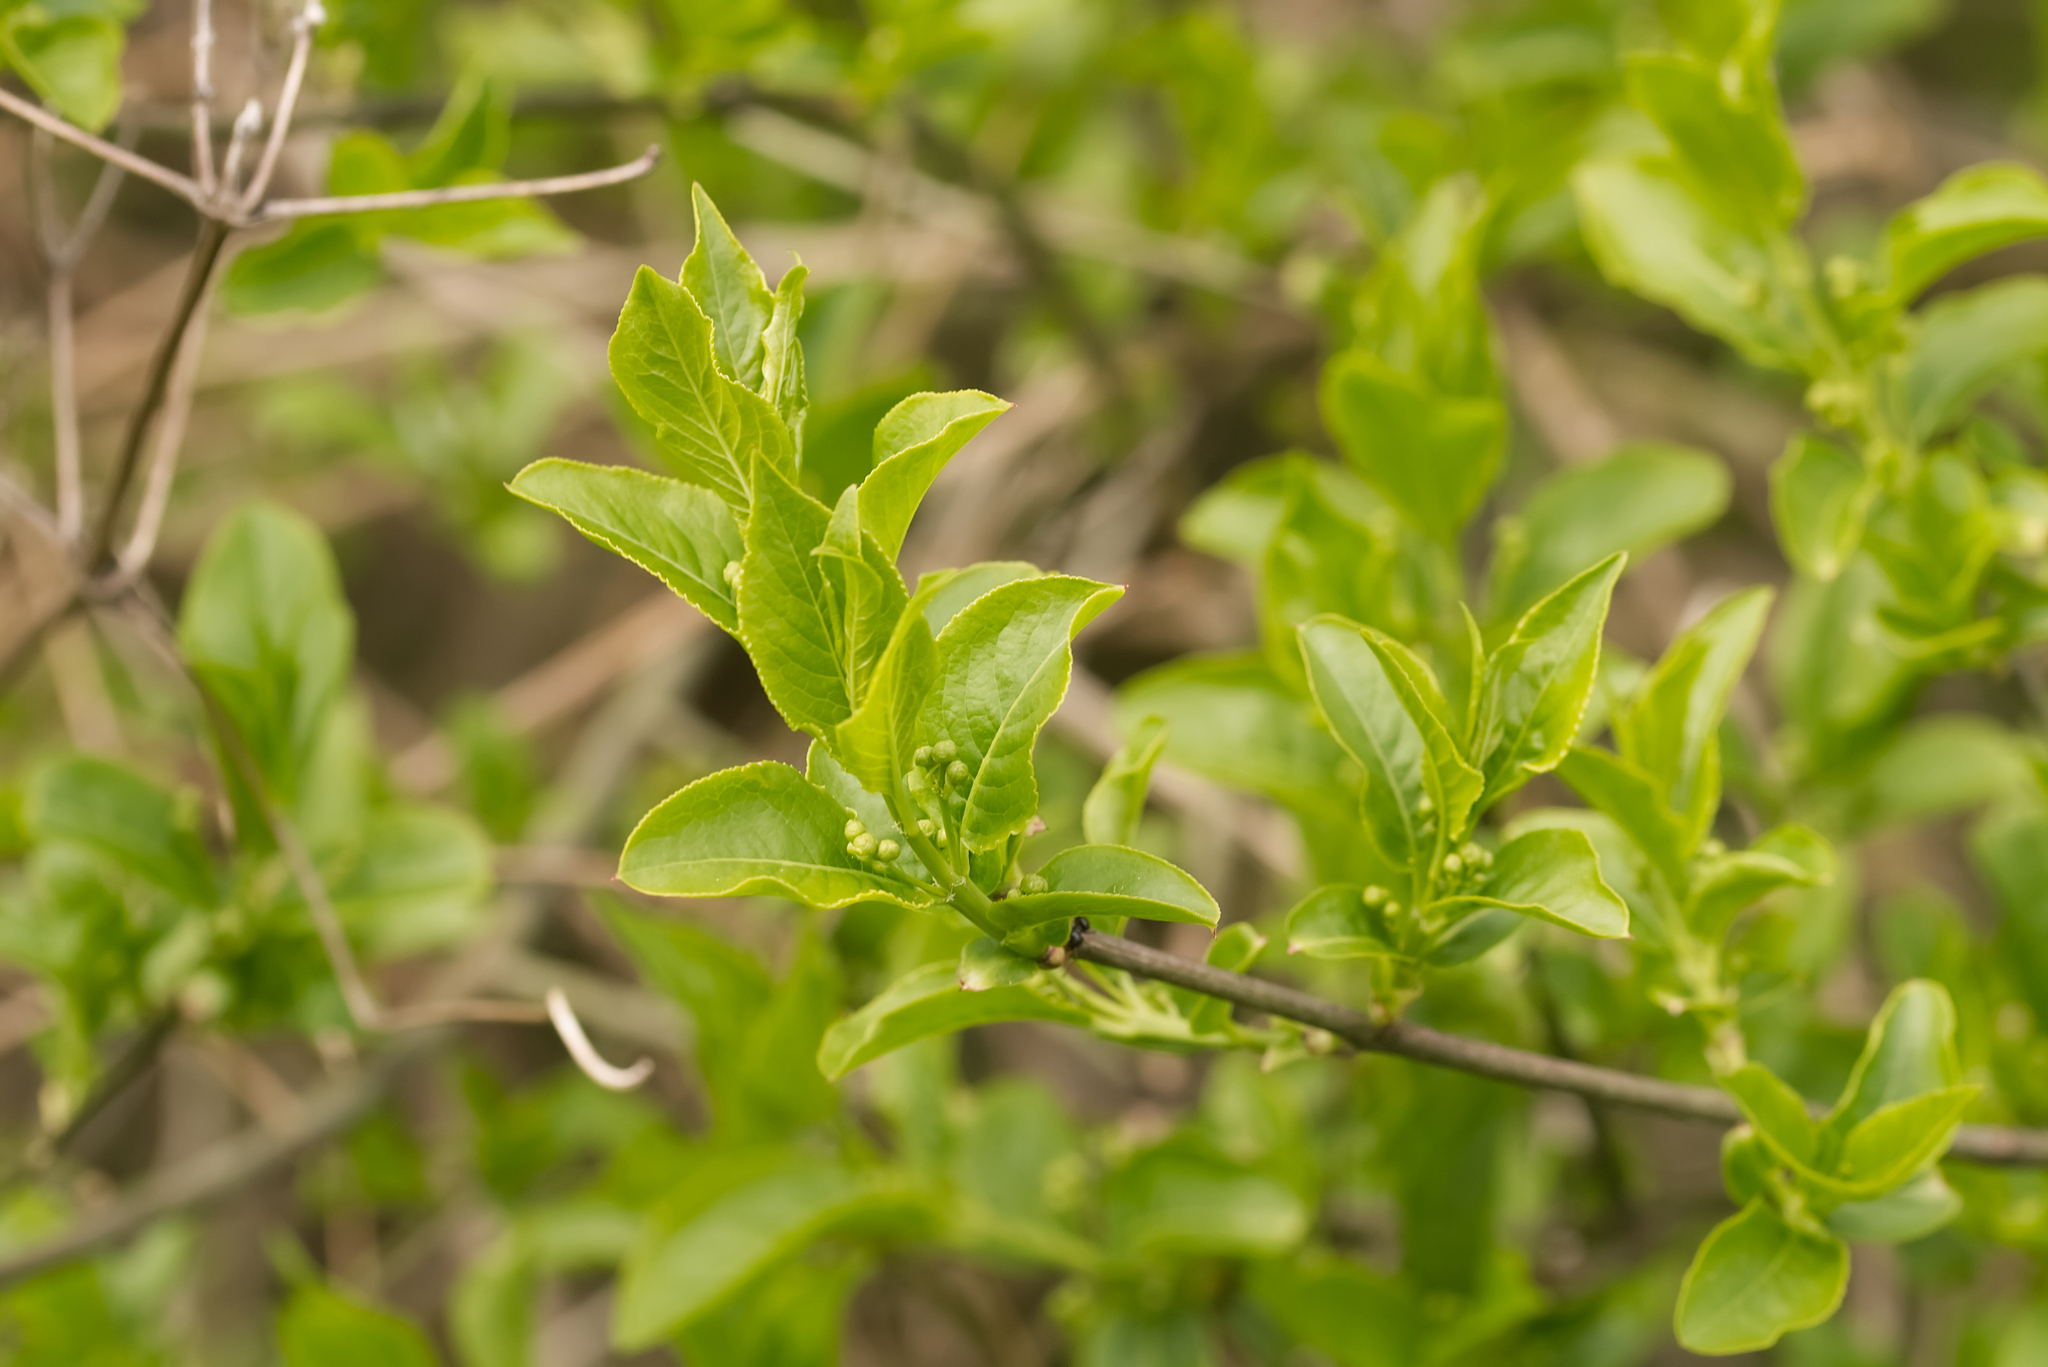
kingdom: Plantae
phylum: Tracheophyta
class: Magnoliopsida
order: Celastrales
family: Celastraceae
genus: Euonymus
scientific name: Euonymus europaeus
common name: Spindle
